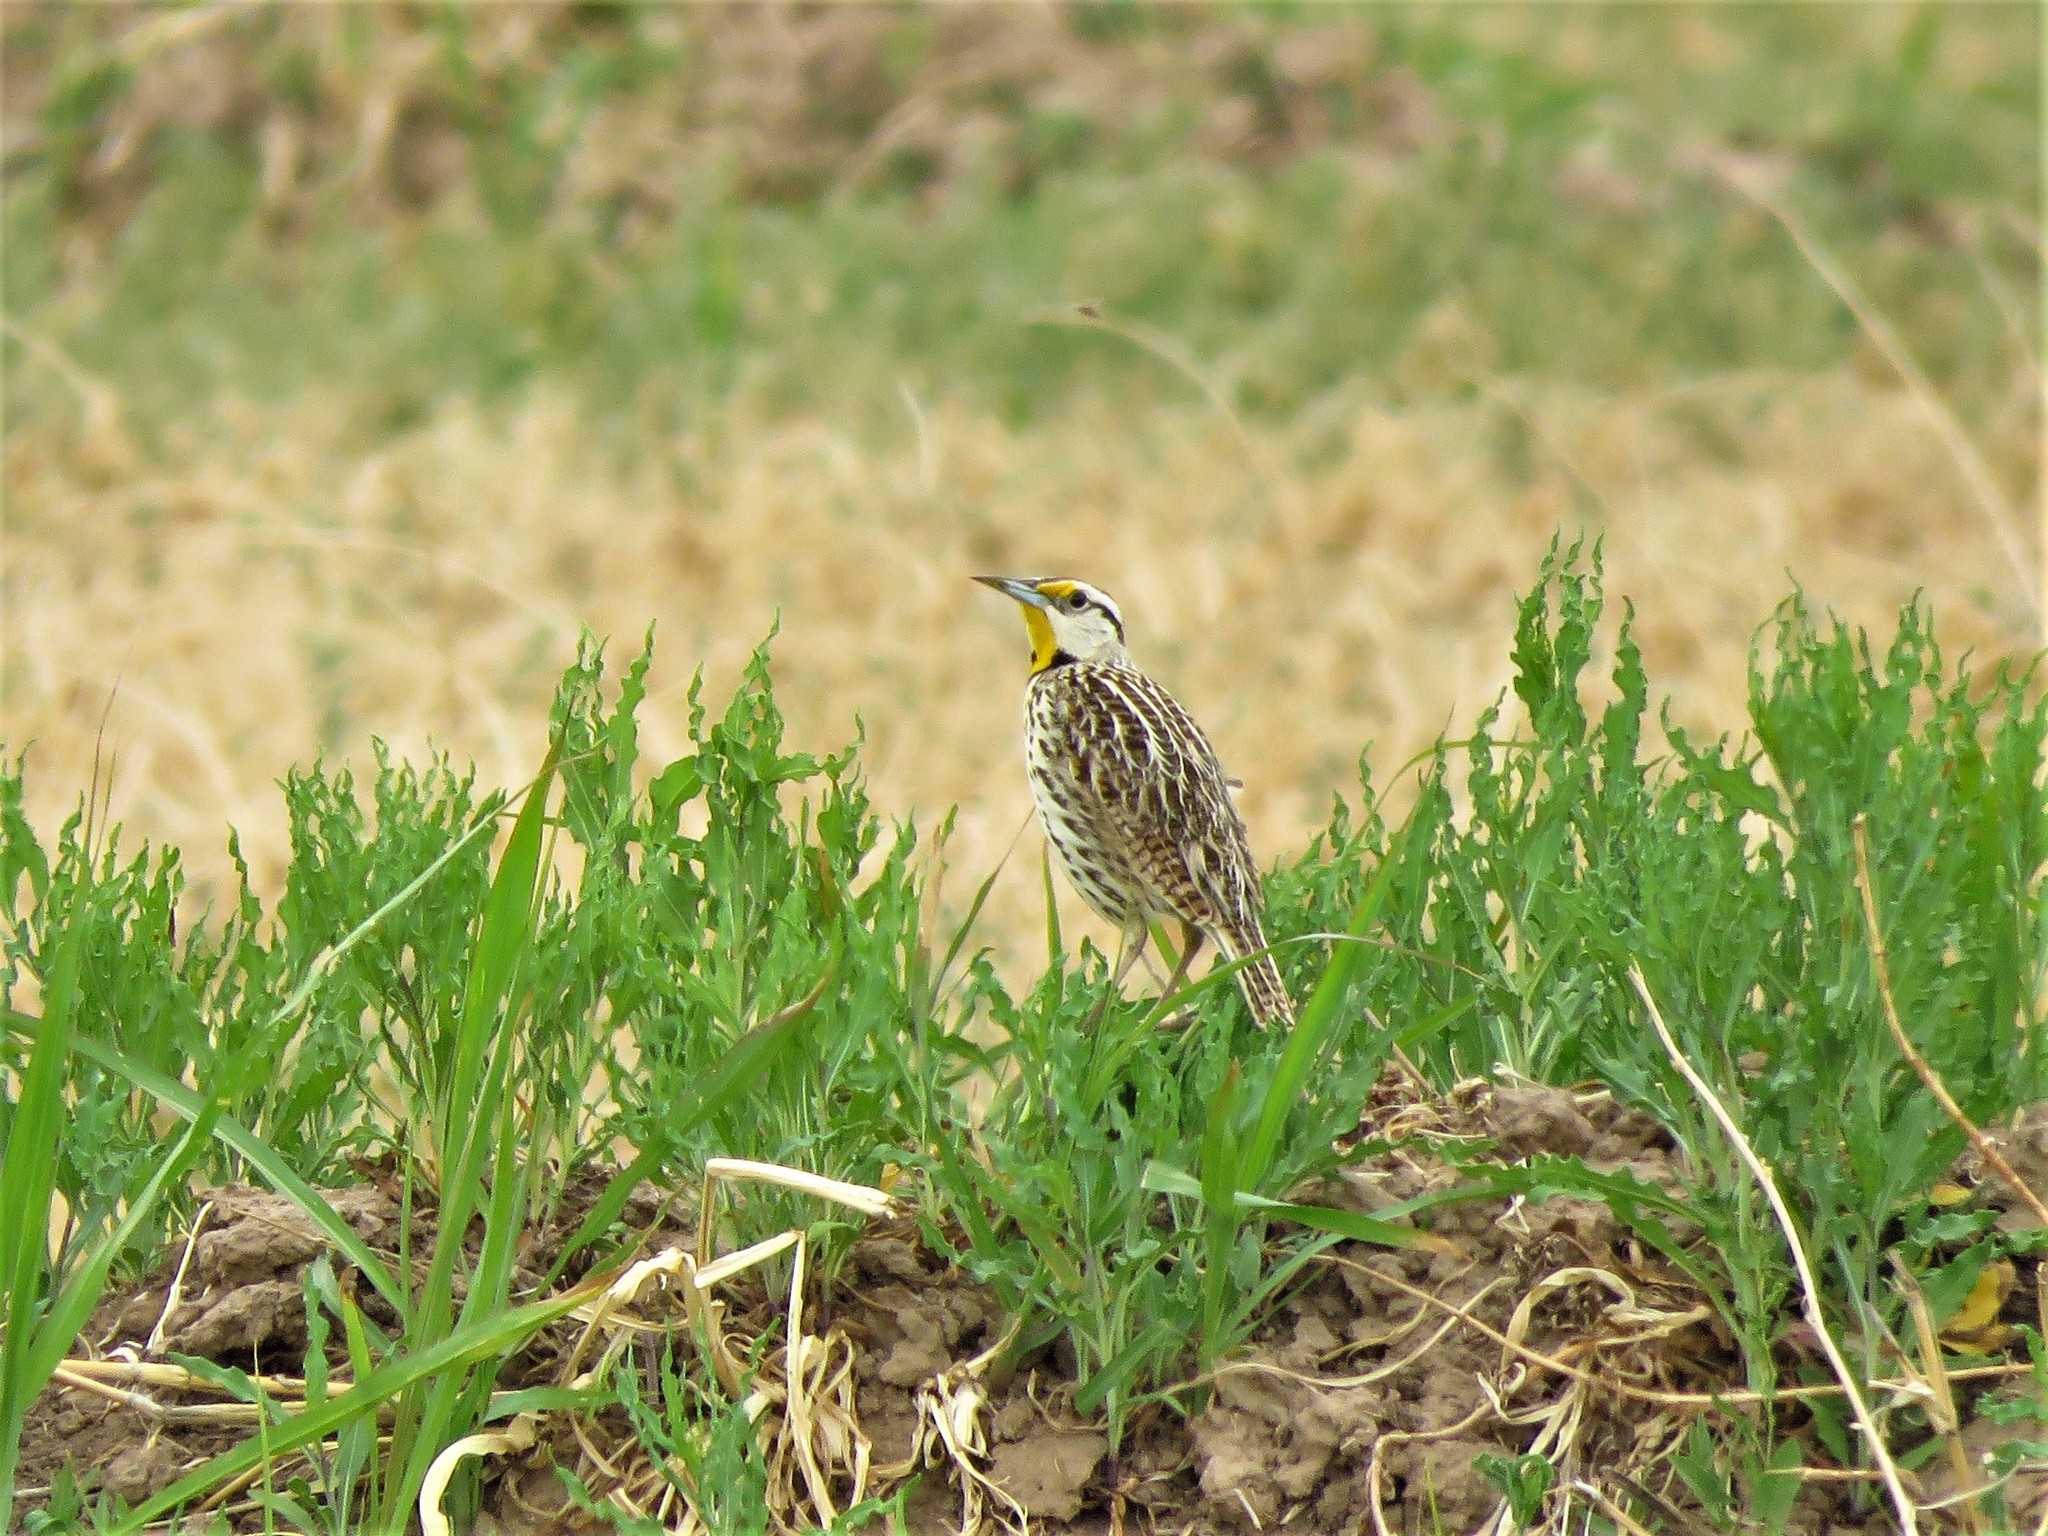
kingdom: Animalia
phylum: Chordata
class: Aves
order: Passeriformes
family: Icteridae
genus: Sturnella
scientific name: Sturnella lilianae
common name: Lilian's meadowlark
